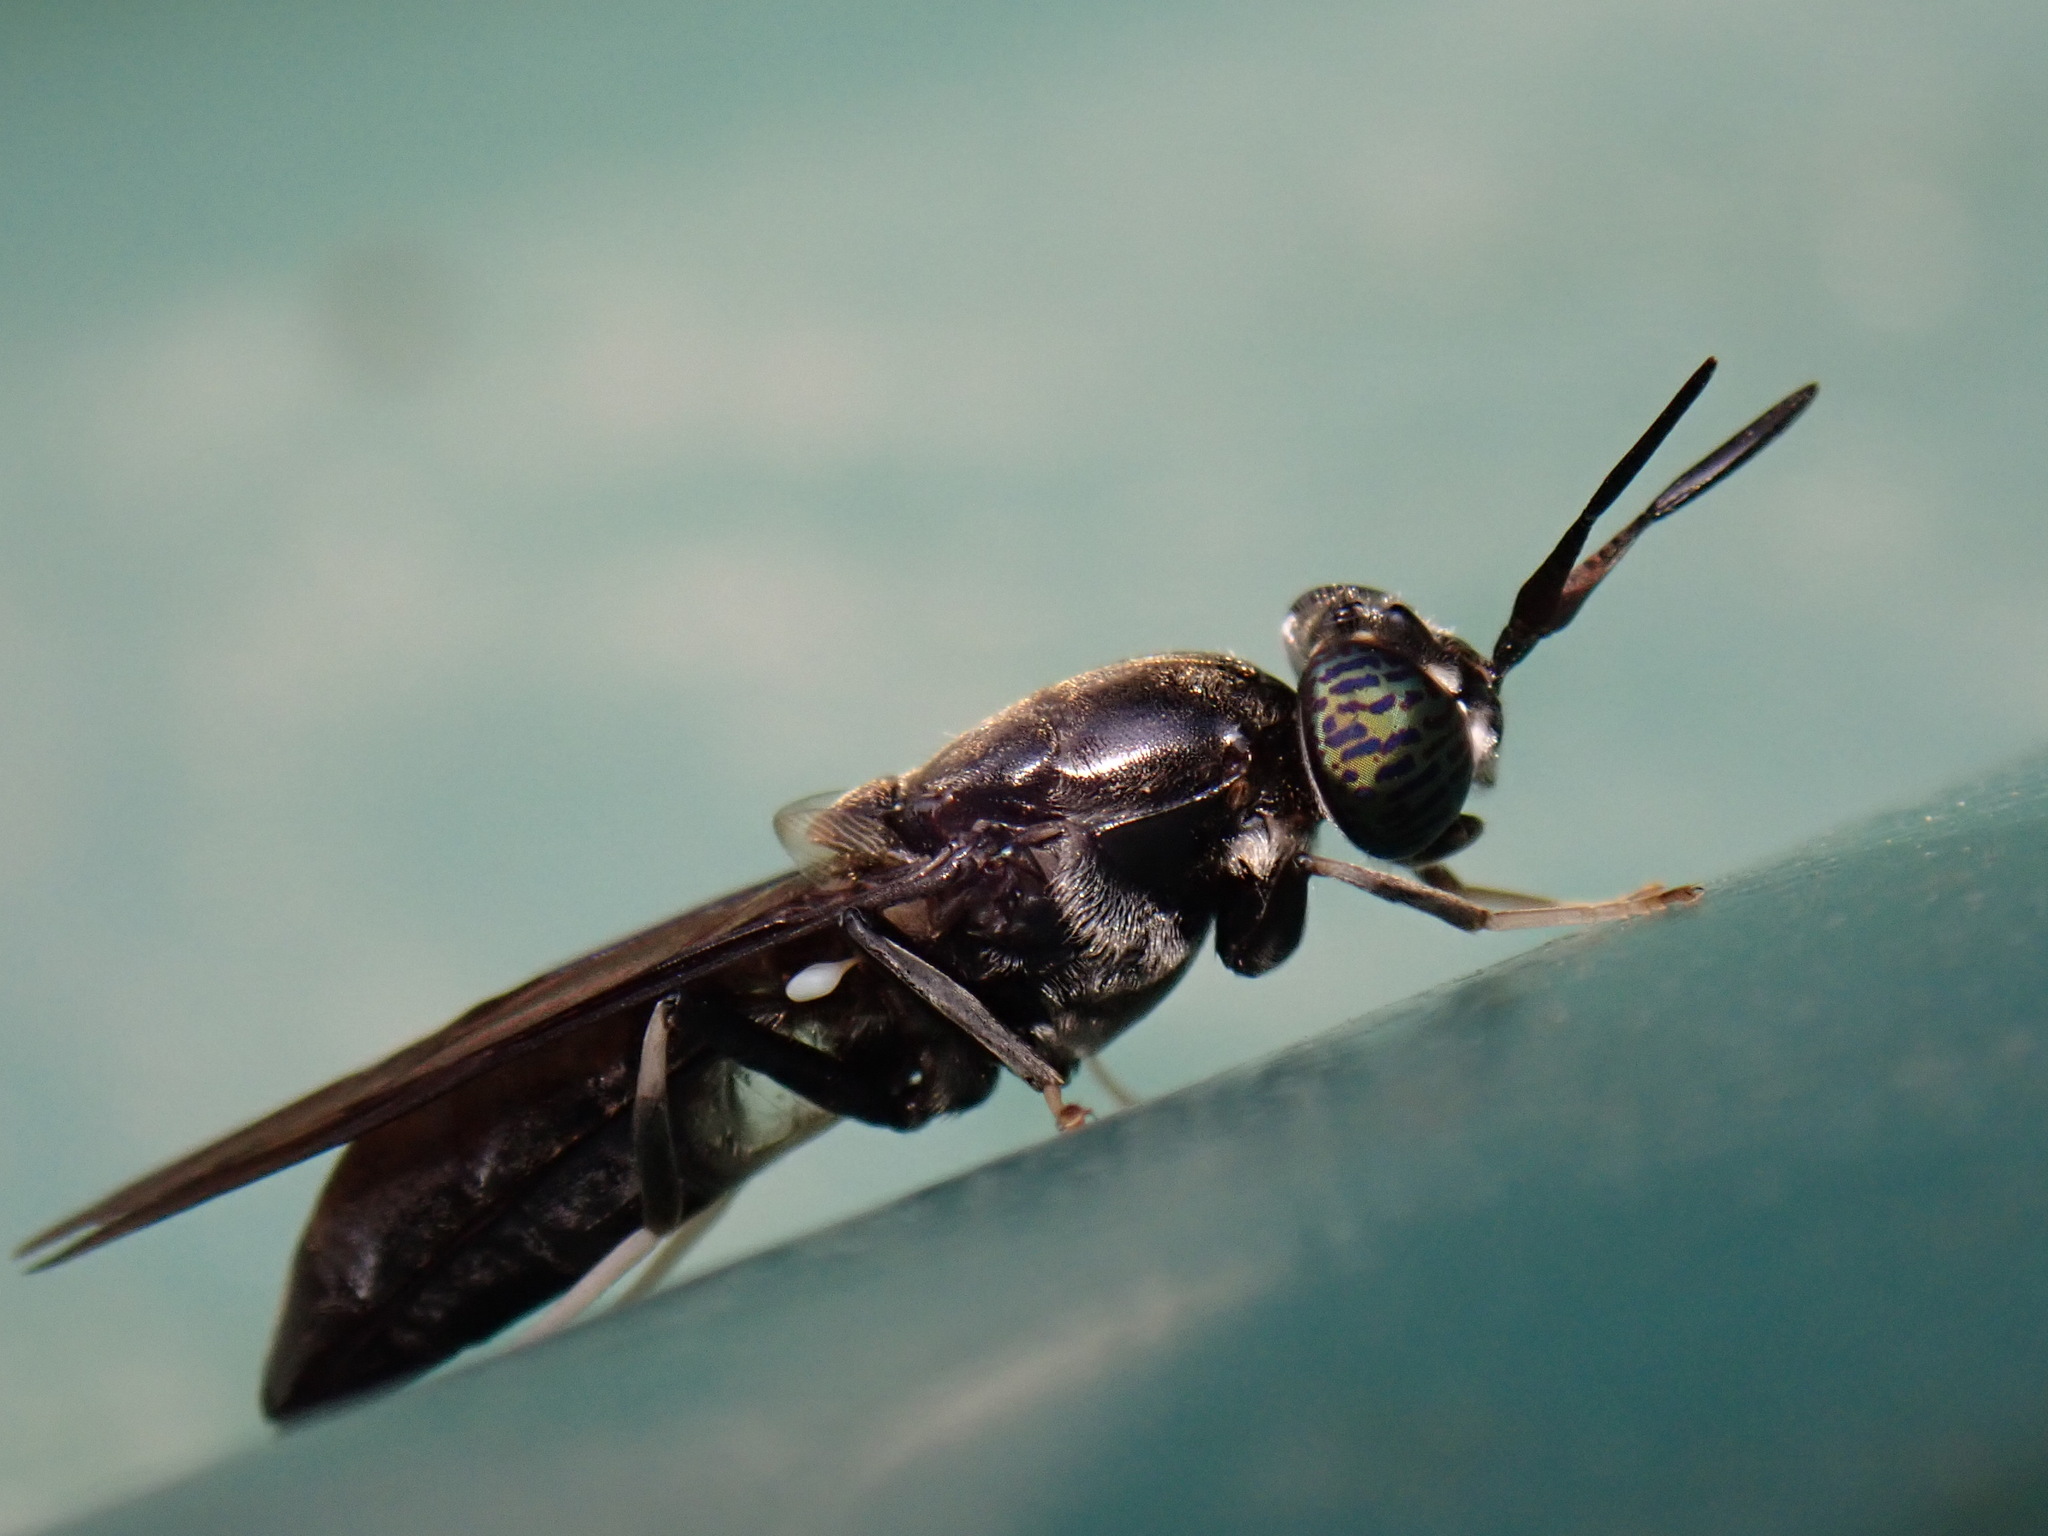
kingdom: Animalia
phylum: Arthropoda
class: Insecta
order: Diptera
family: Stratiomyidae
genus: Hermetia
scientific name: Hermetia illucens
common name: Black soldier fly
